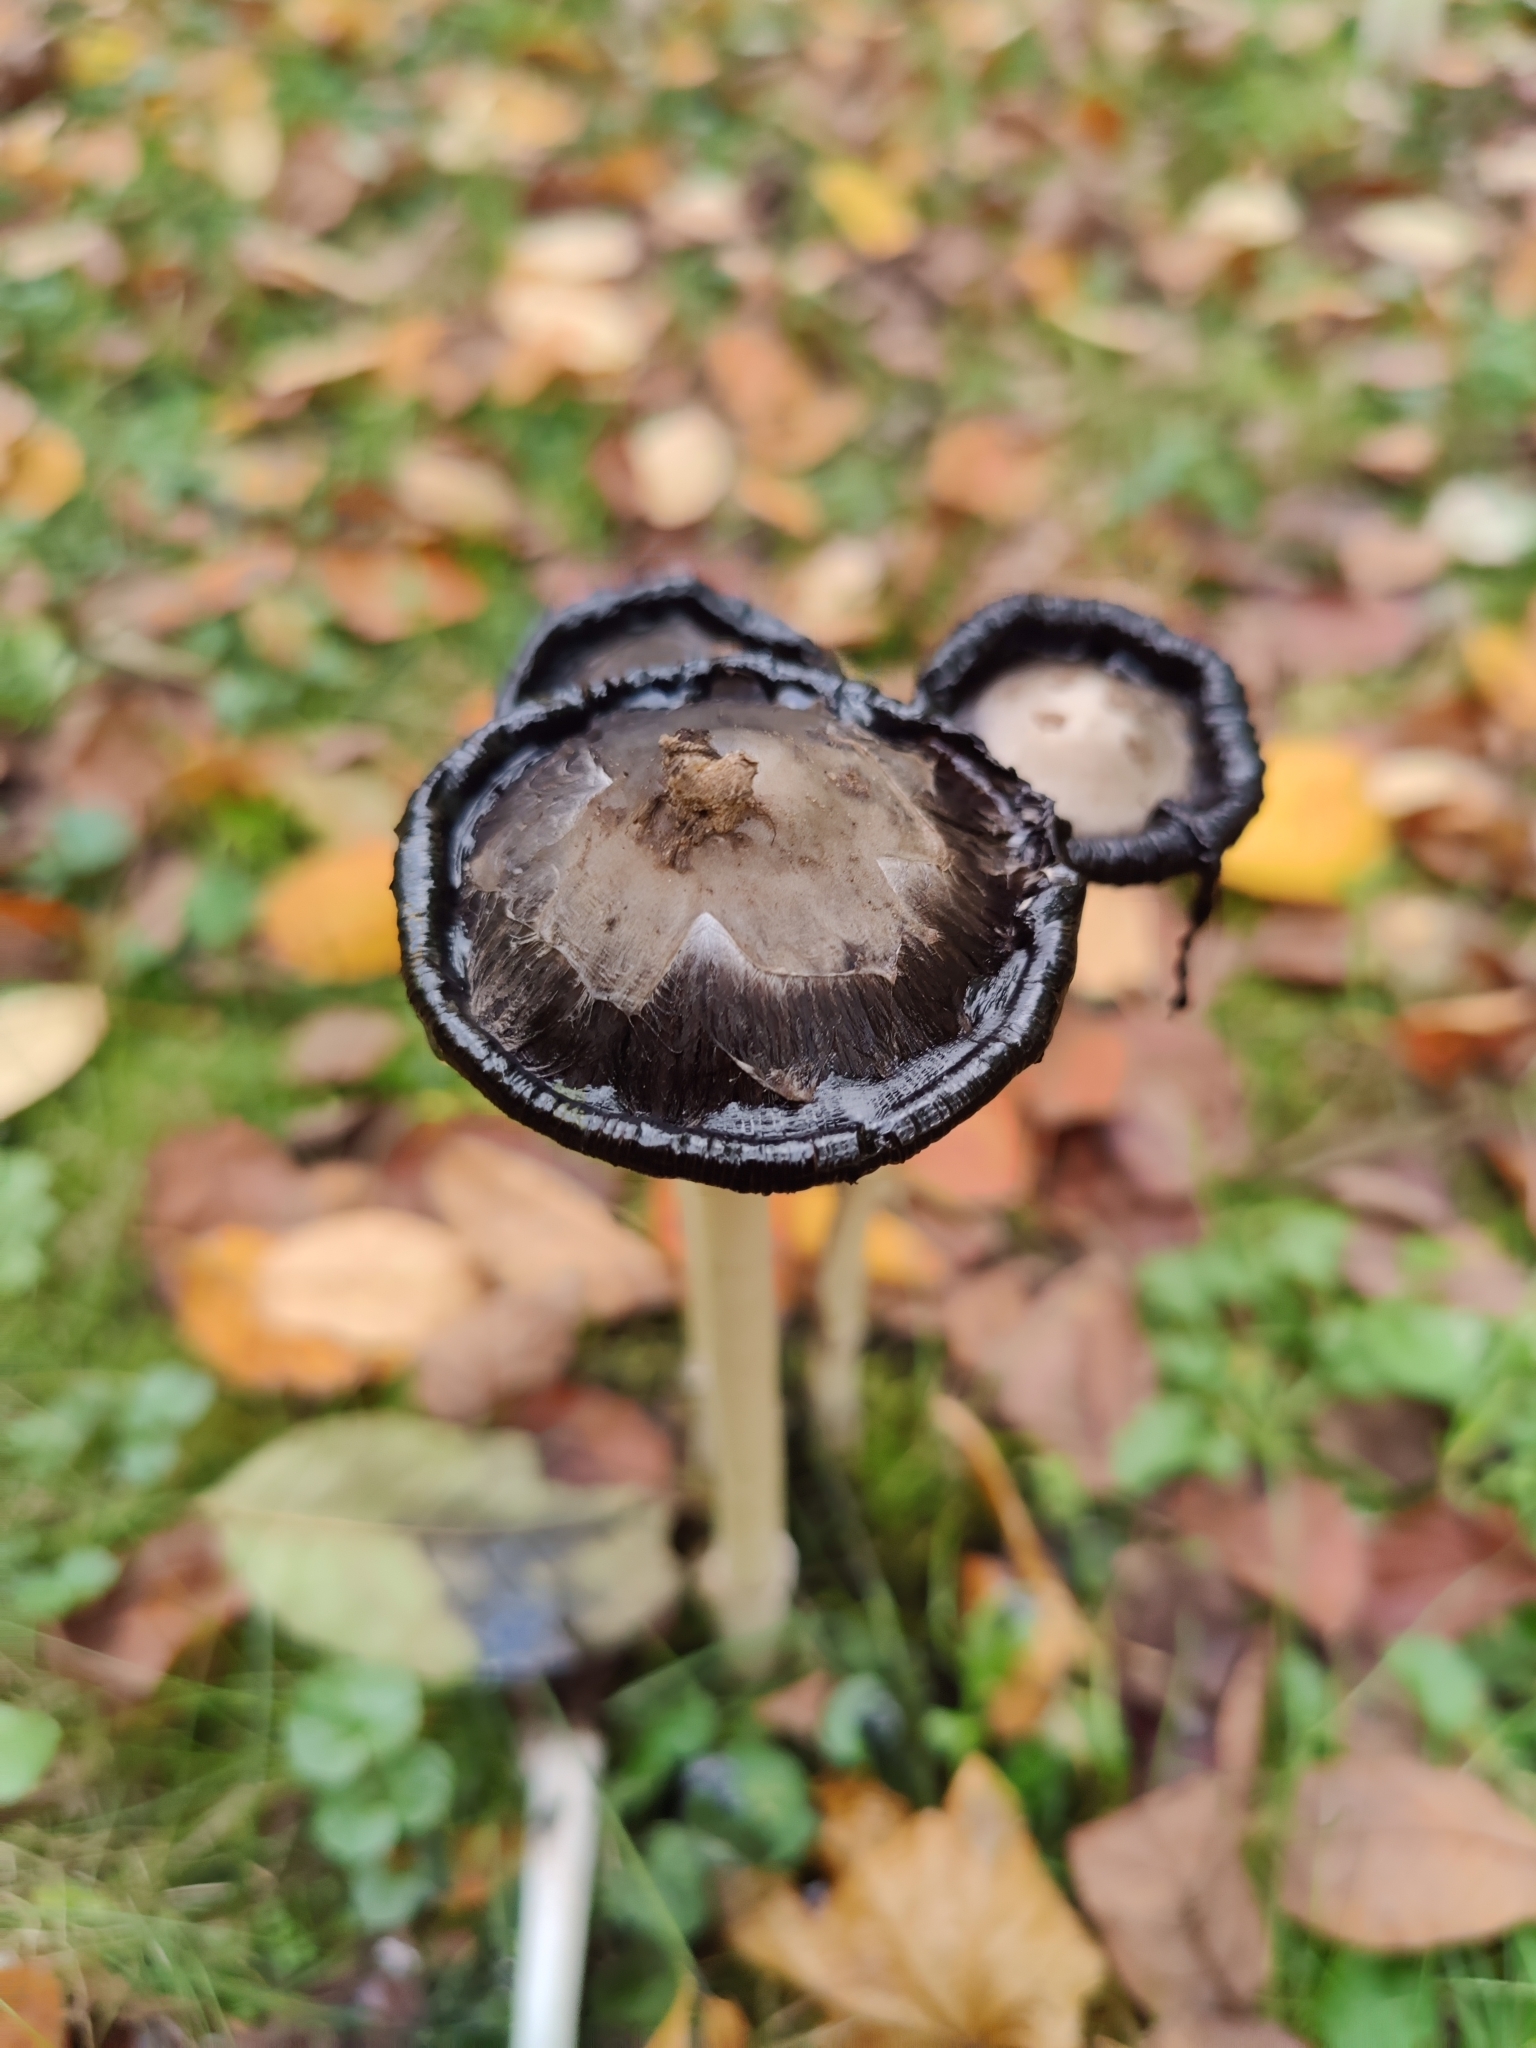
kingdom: Fungi
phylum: Basidiomycota
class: Agaricomycetes
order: Agaricales
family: Agaricaceae
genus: Coprinus
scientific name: Coprinus comatus
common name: Lawyer's wig
